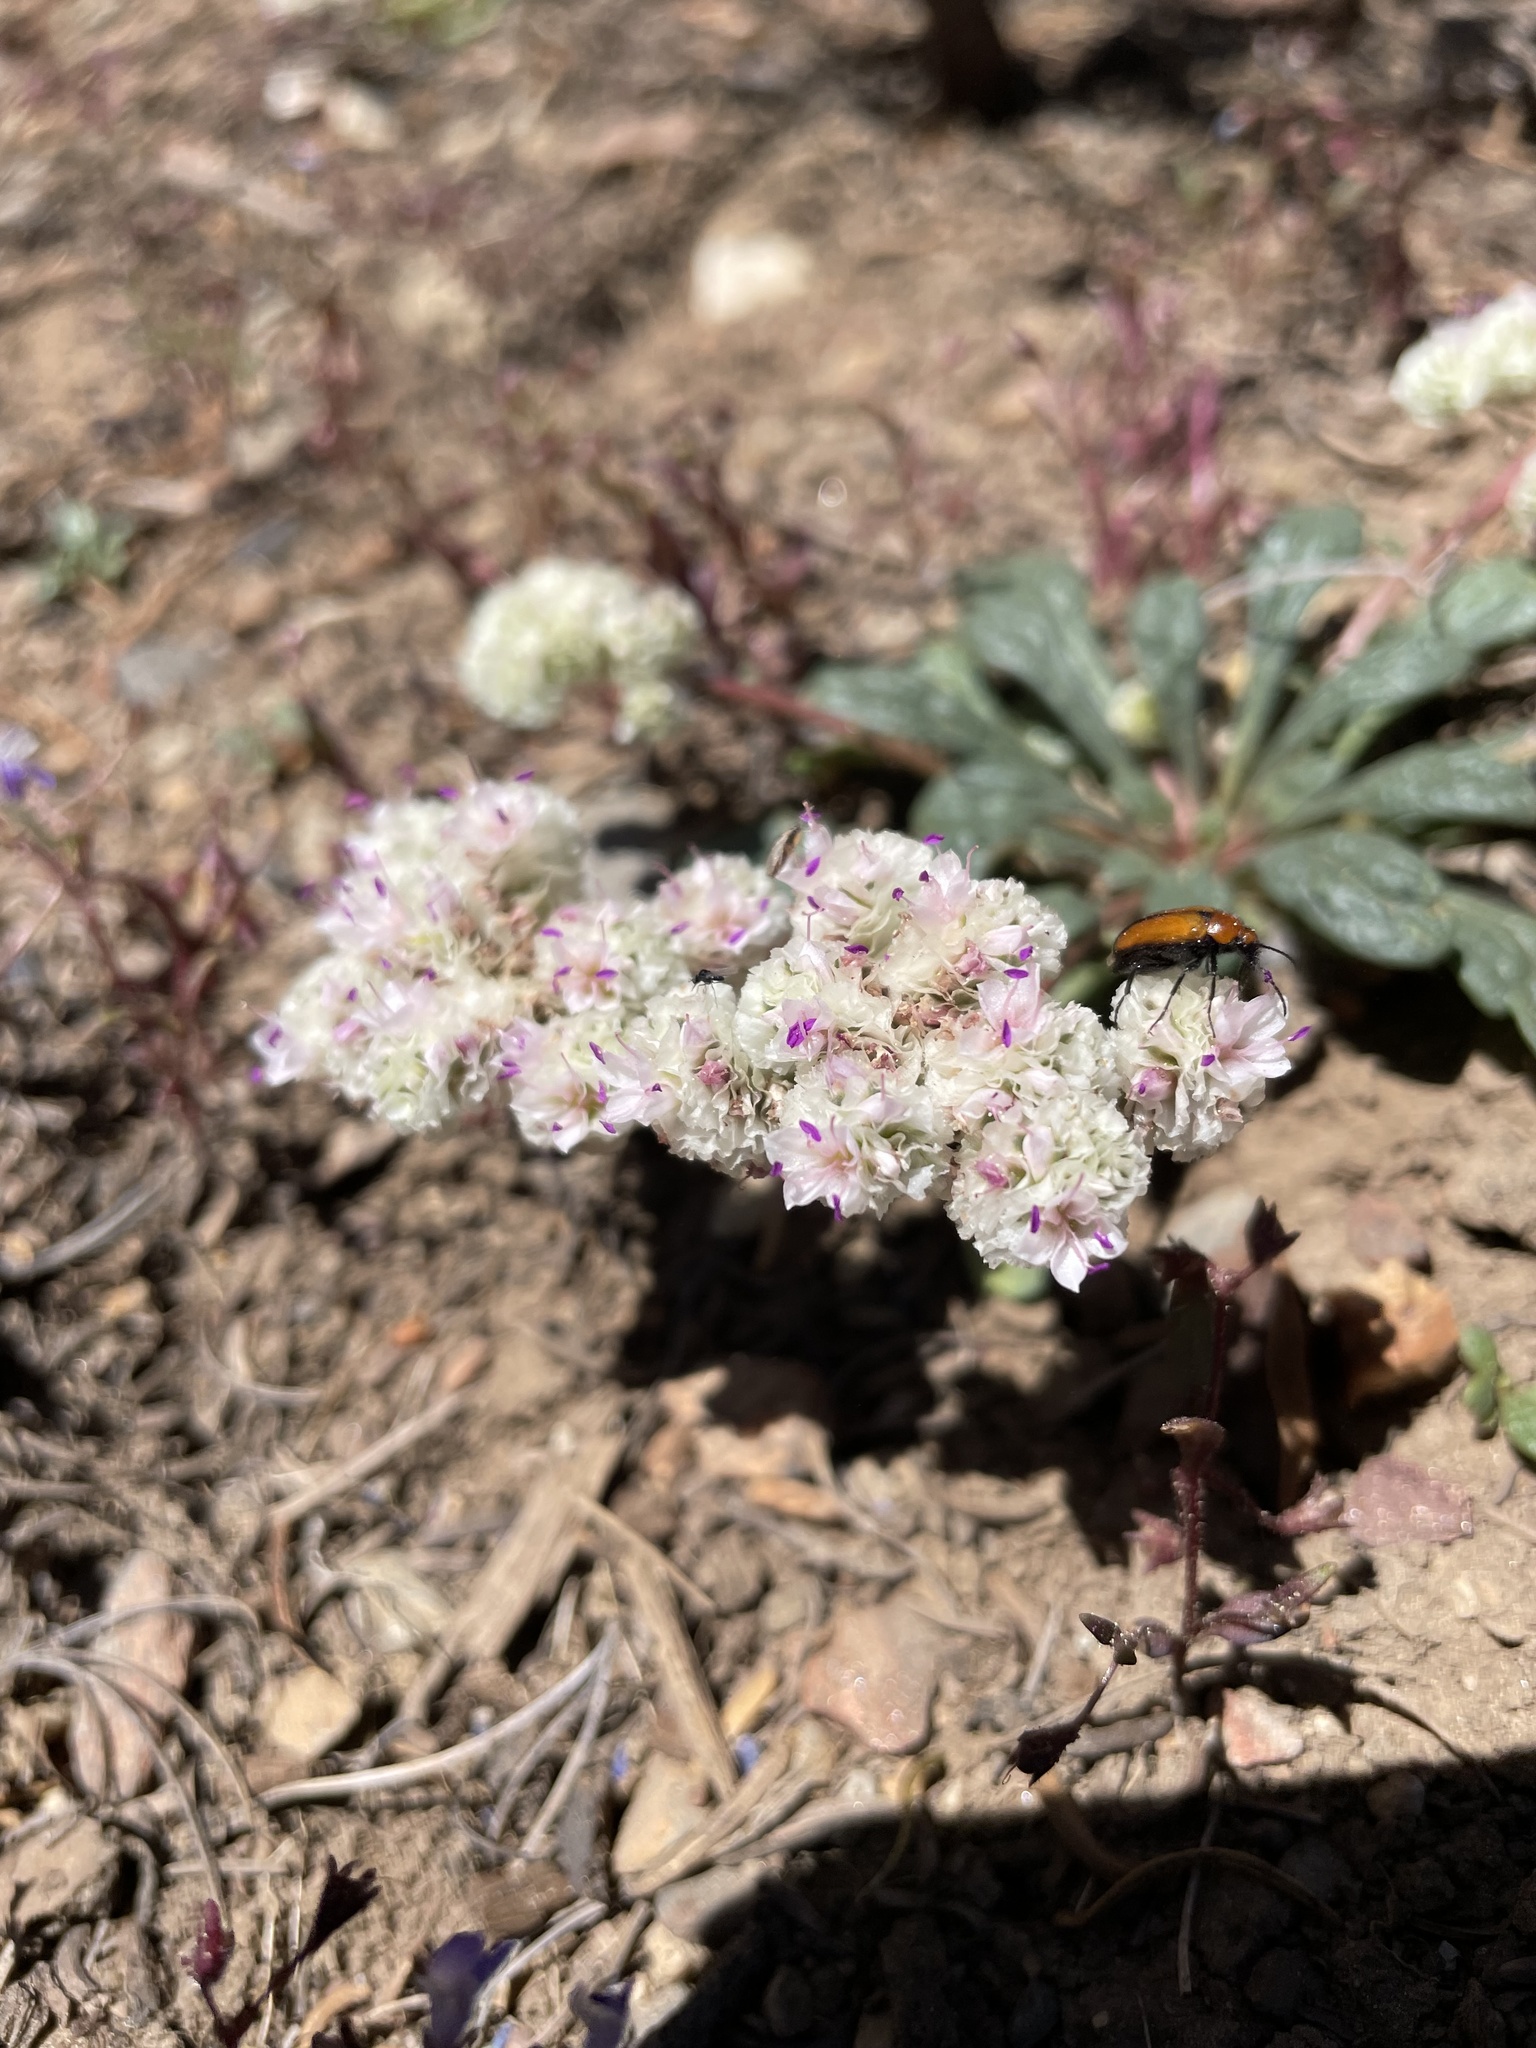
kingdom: Plantae
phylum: Tracheophyta
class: Magnoliopsida
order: Caryophyllales
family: Montiaceae
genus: Calyptridium
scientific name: Calyptridium monospermum
